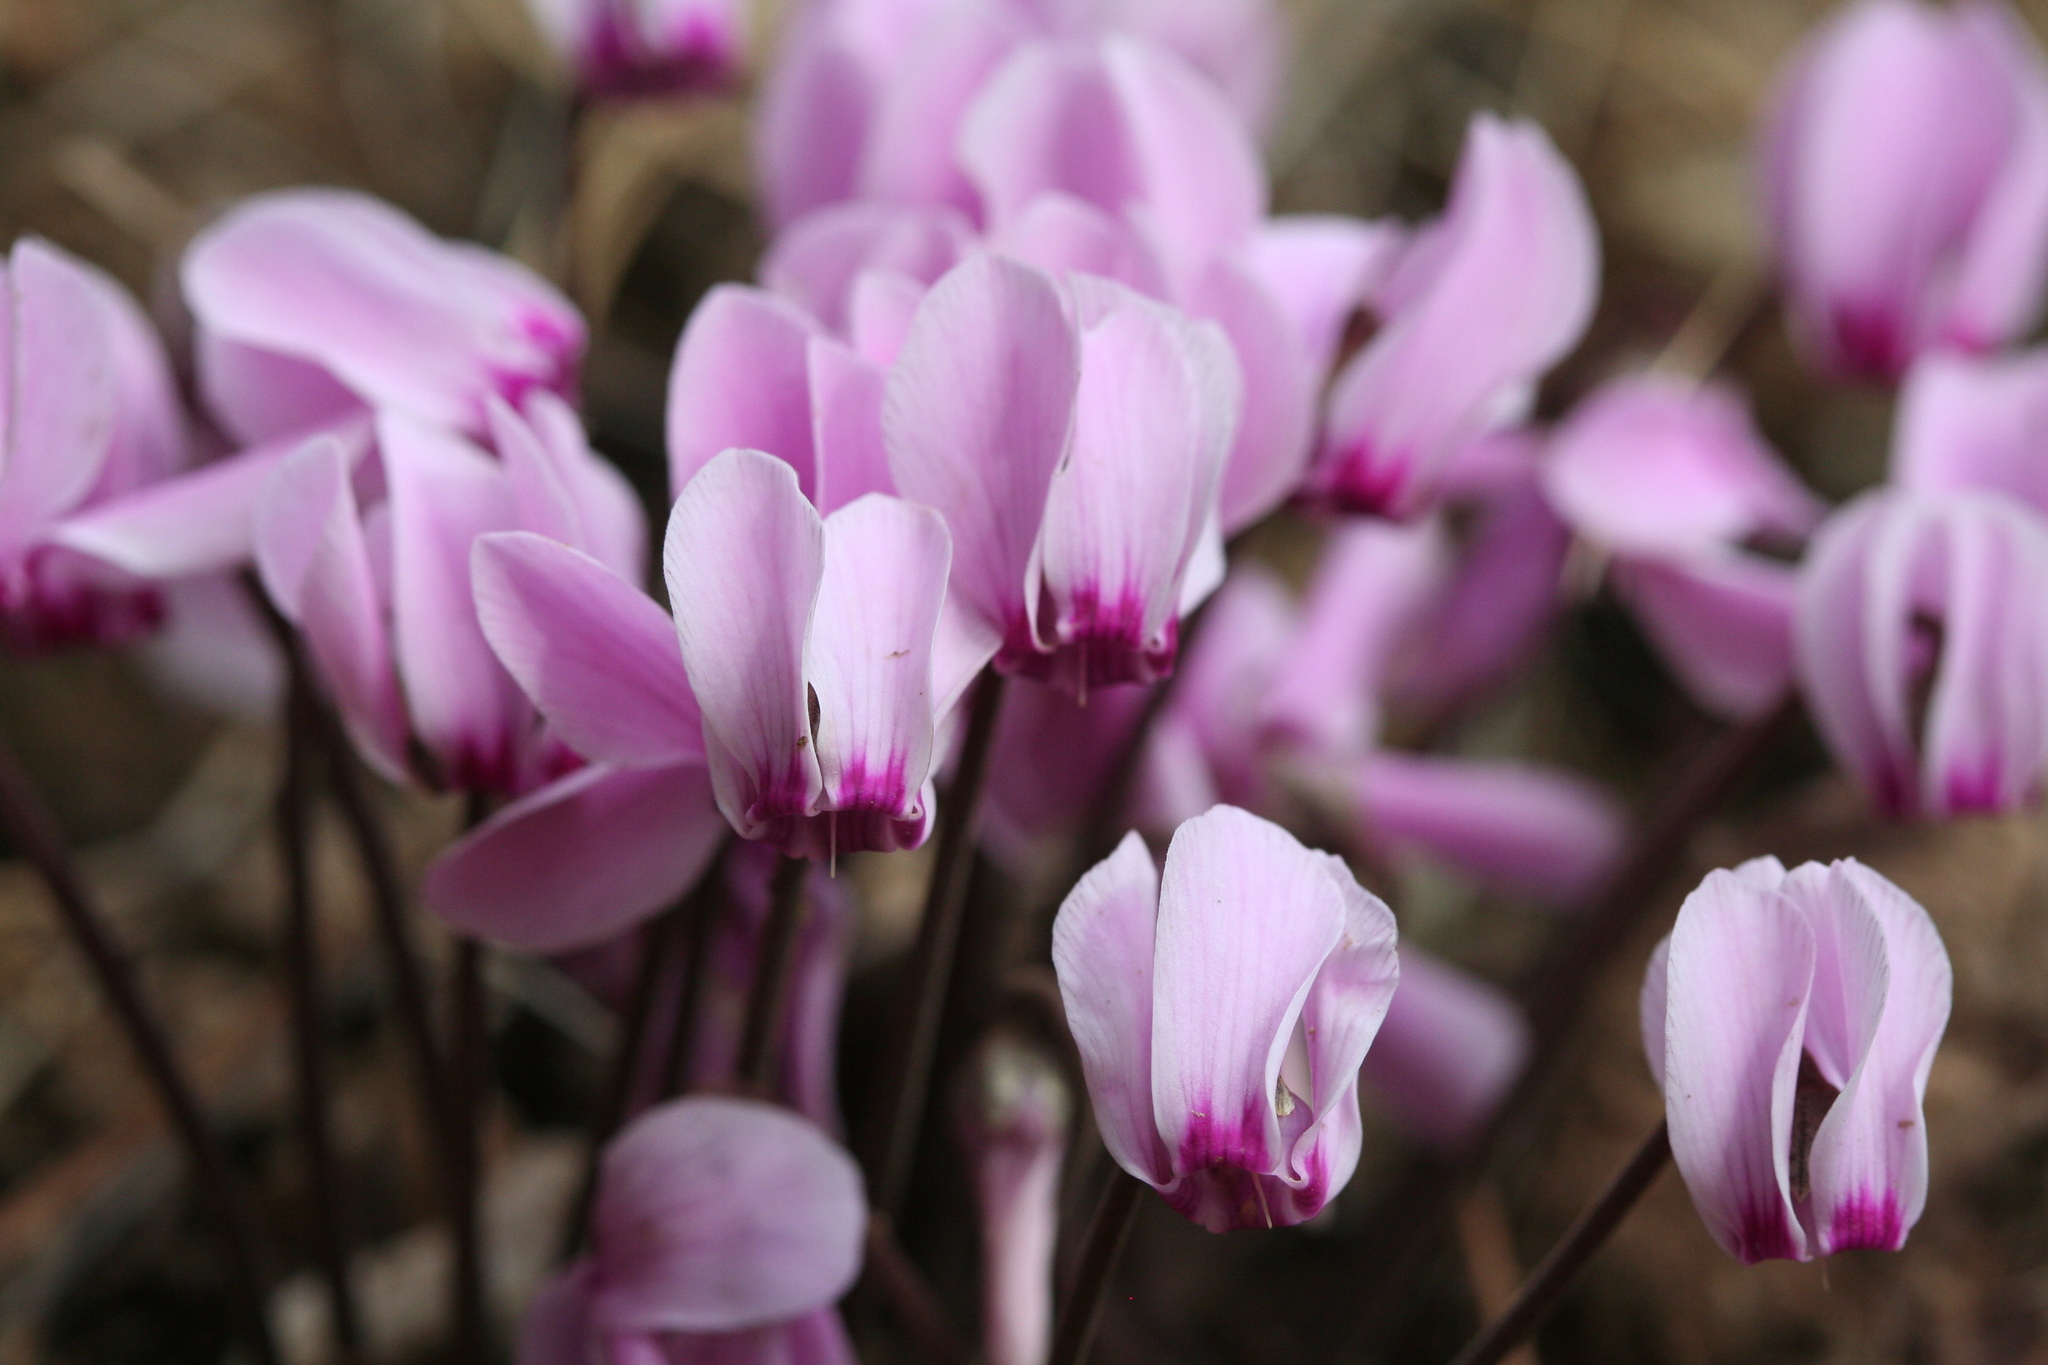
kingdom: Plantae
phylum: Tracheophyta
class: Magnoliopsida
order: Ericales
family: Primulaceae
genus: Cyclamen
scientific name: Cyclamen graecum
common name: Greek cyclamen
